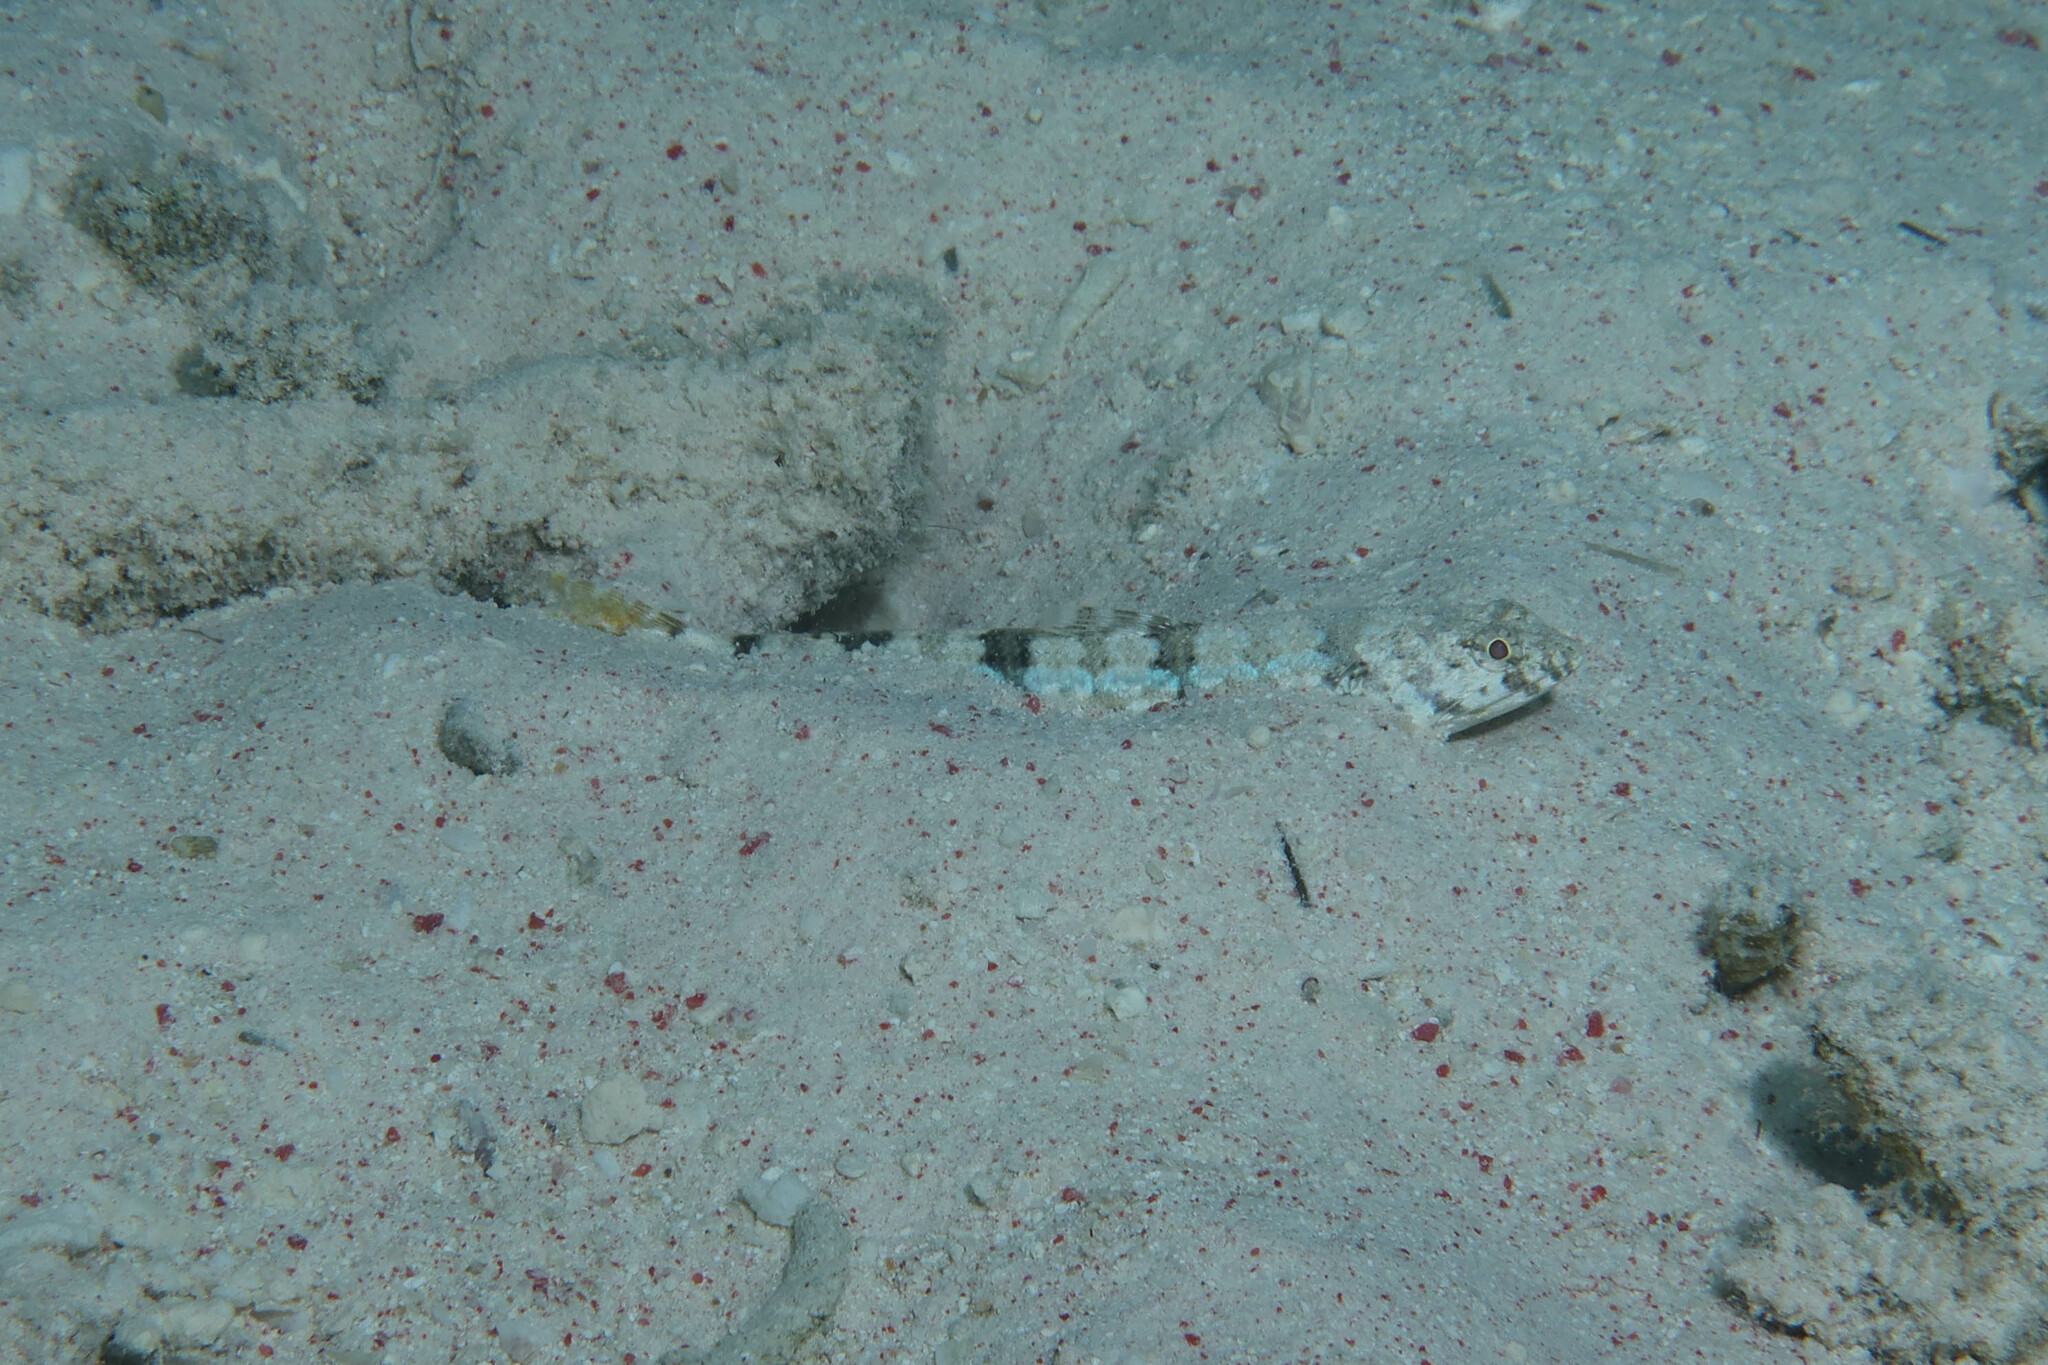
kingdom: Animalia
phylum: Chordata
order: Aulopiformes
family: Synodontidae
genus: Synodus
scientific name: Synodus dermatogenys
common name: Banded lizardfish
